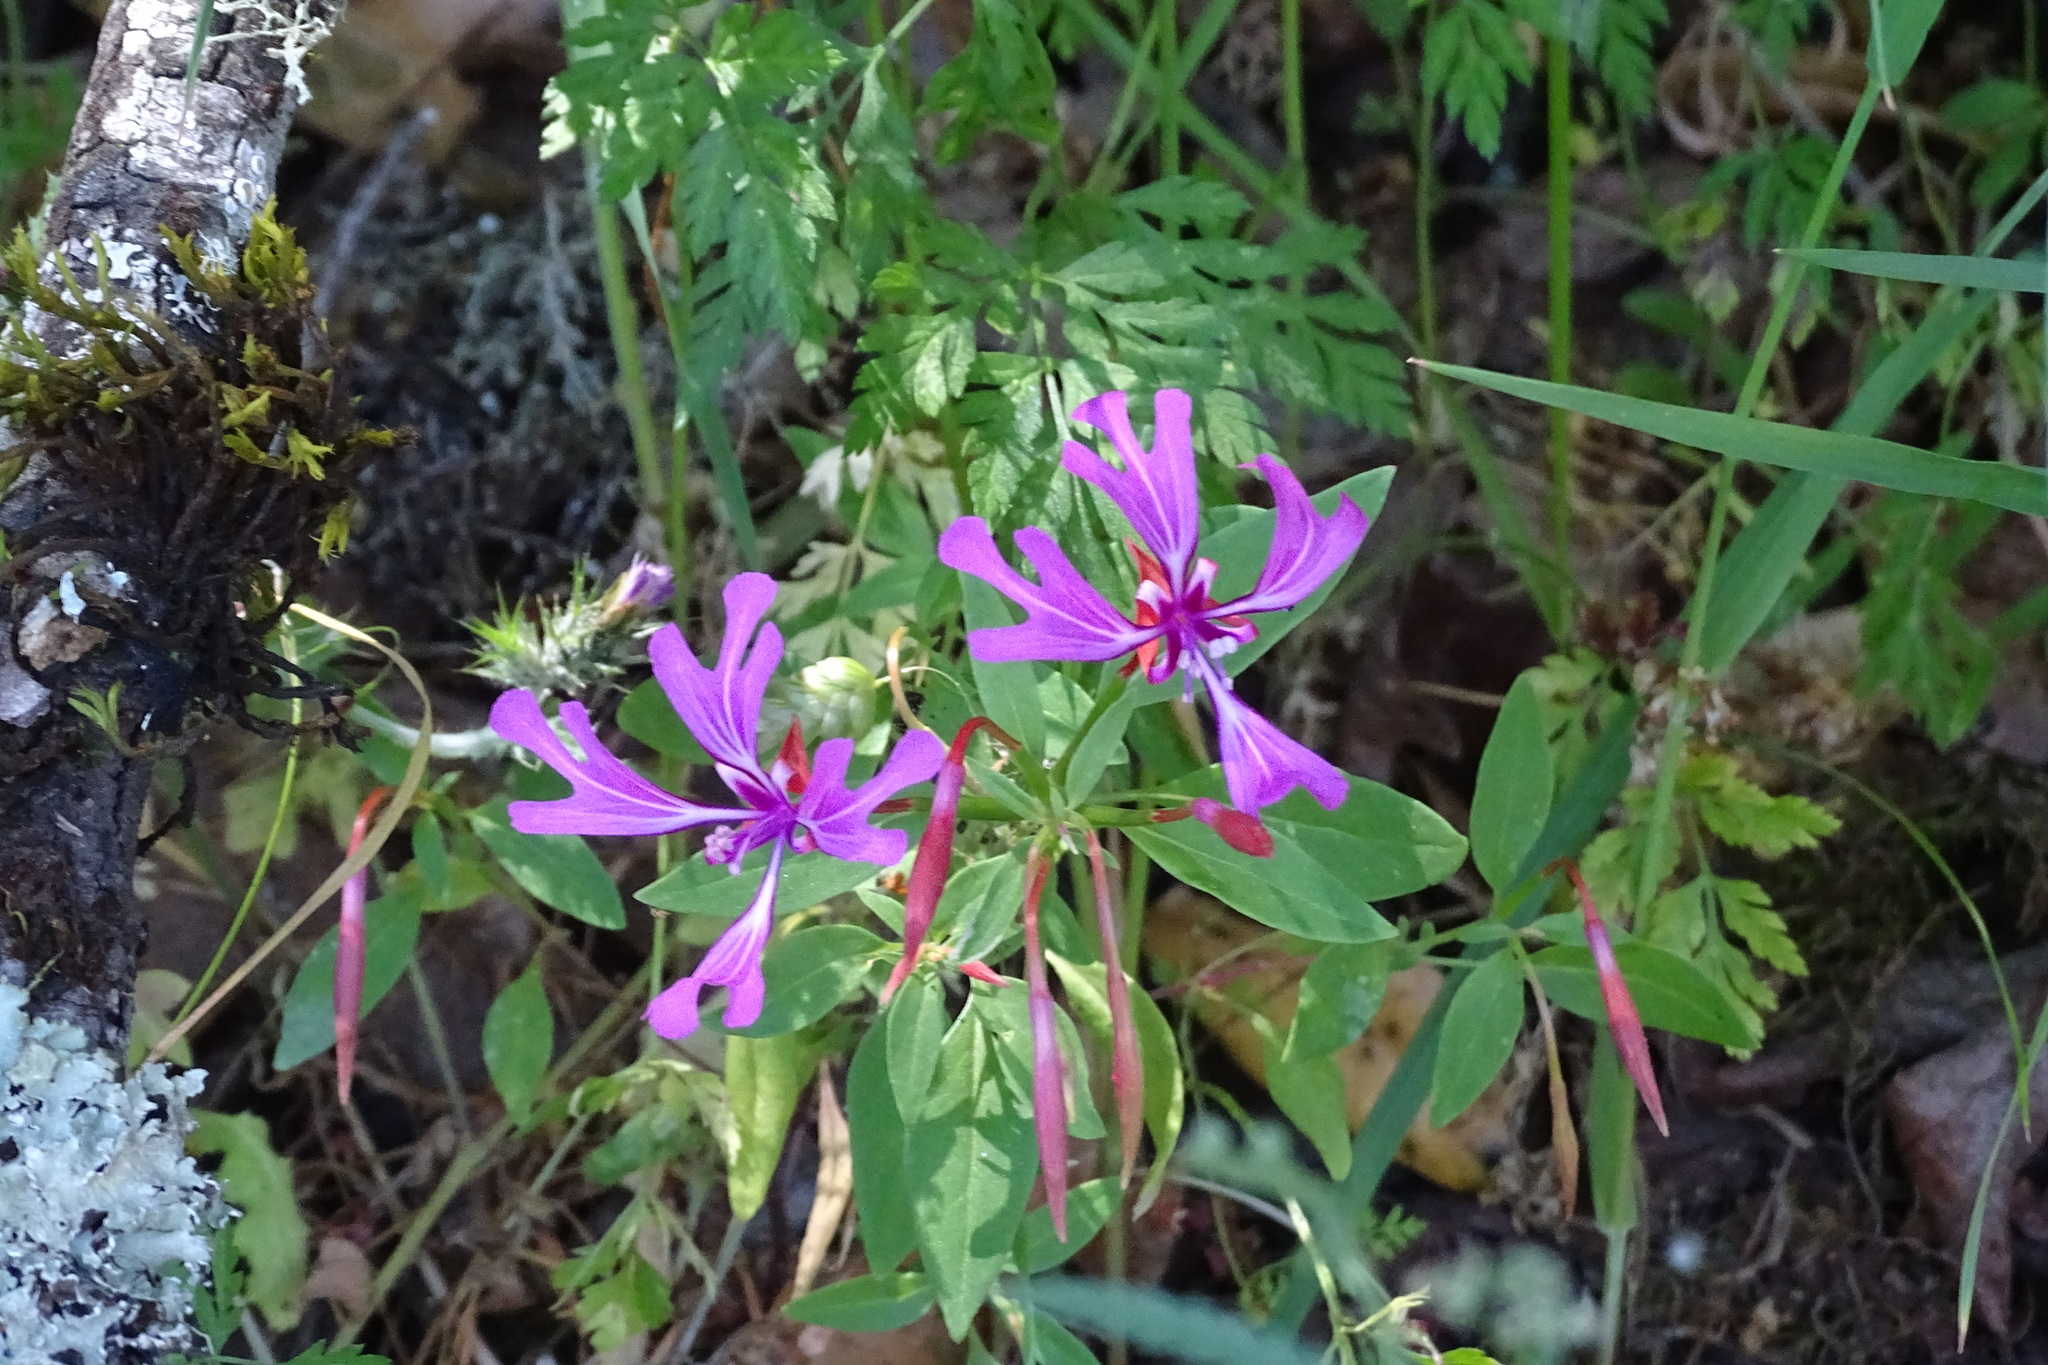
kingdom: Plantae
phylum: Tracheophyta
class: Magnoliopsida
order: Myrtales
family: Onagraceae
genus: Clarkia
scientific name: Clarkia concinna
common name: Red-ribbons
